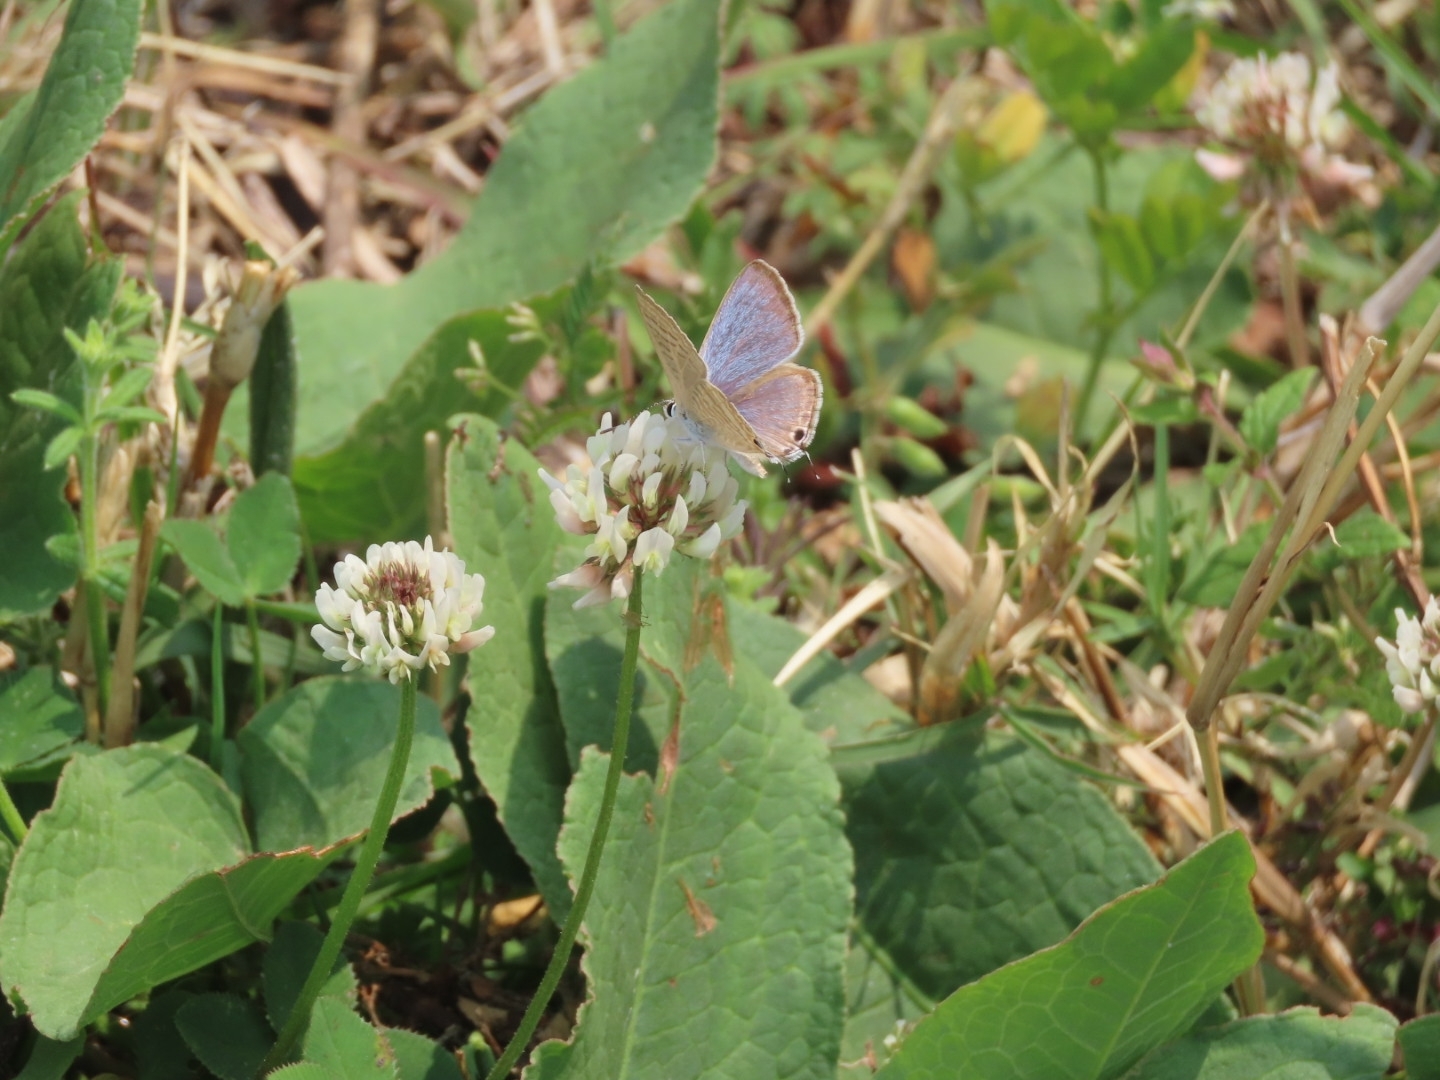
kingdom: Animalia
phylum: Arthropoda
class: Insecta
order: Lepidoptera
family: Lycaenidae
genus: Lampides
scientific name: Lampides boeticus
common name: Long-tailed blue
